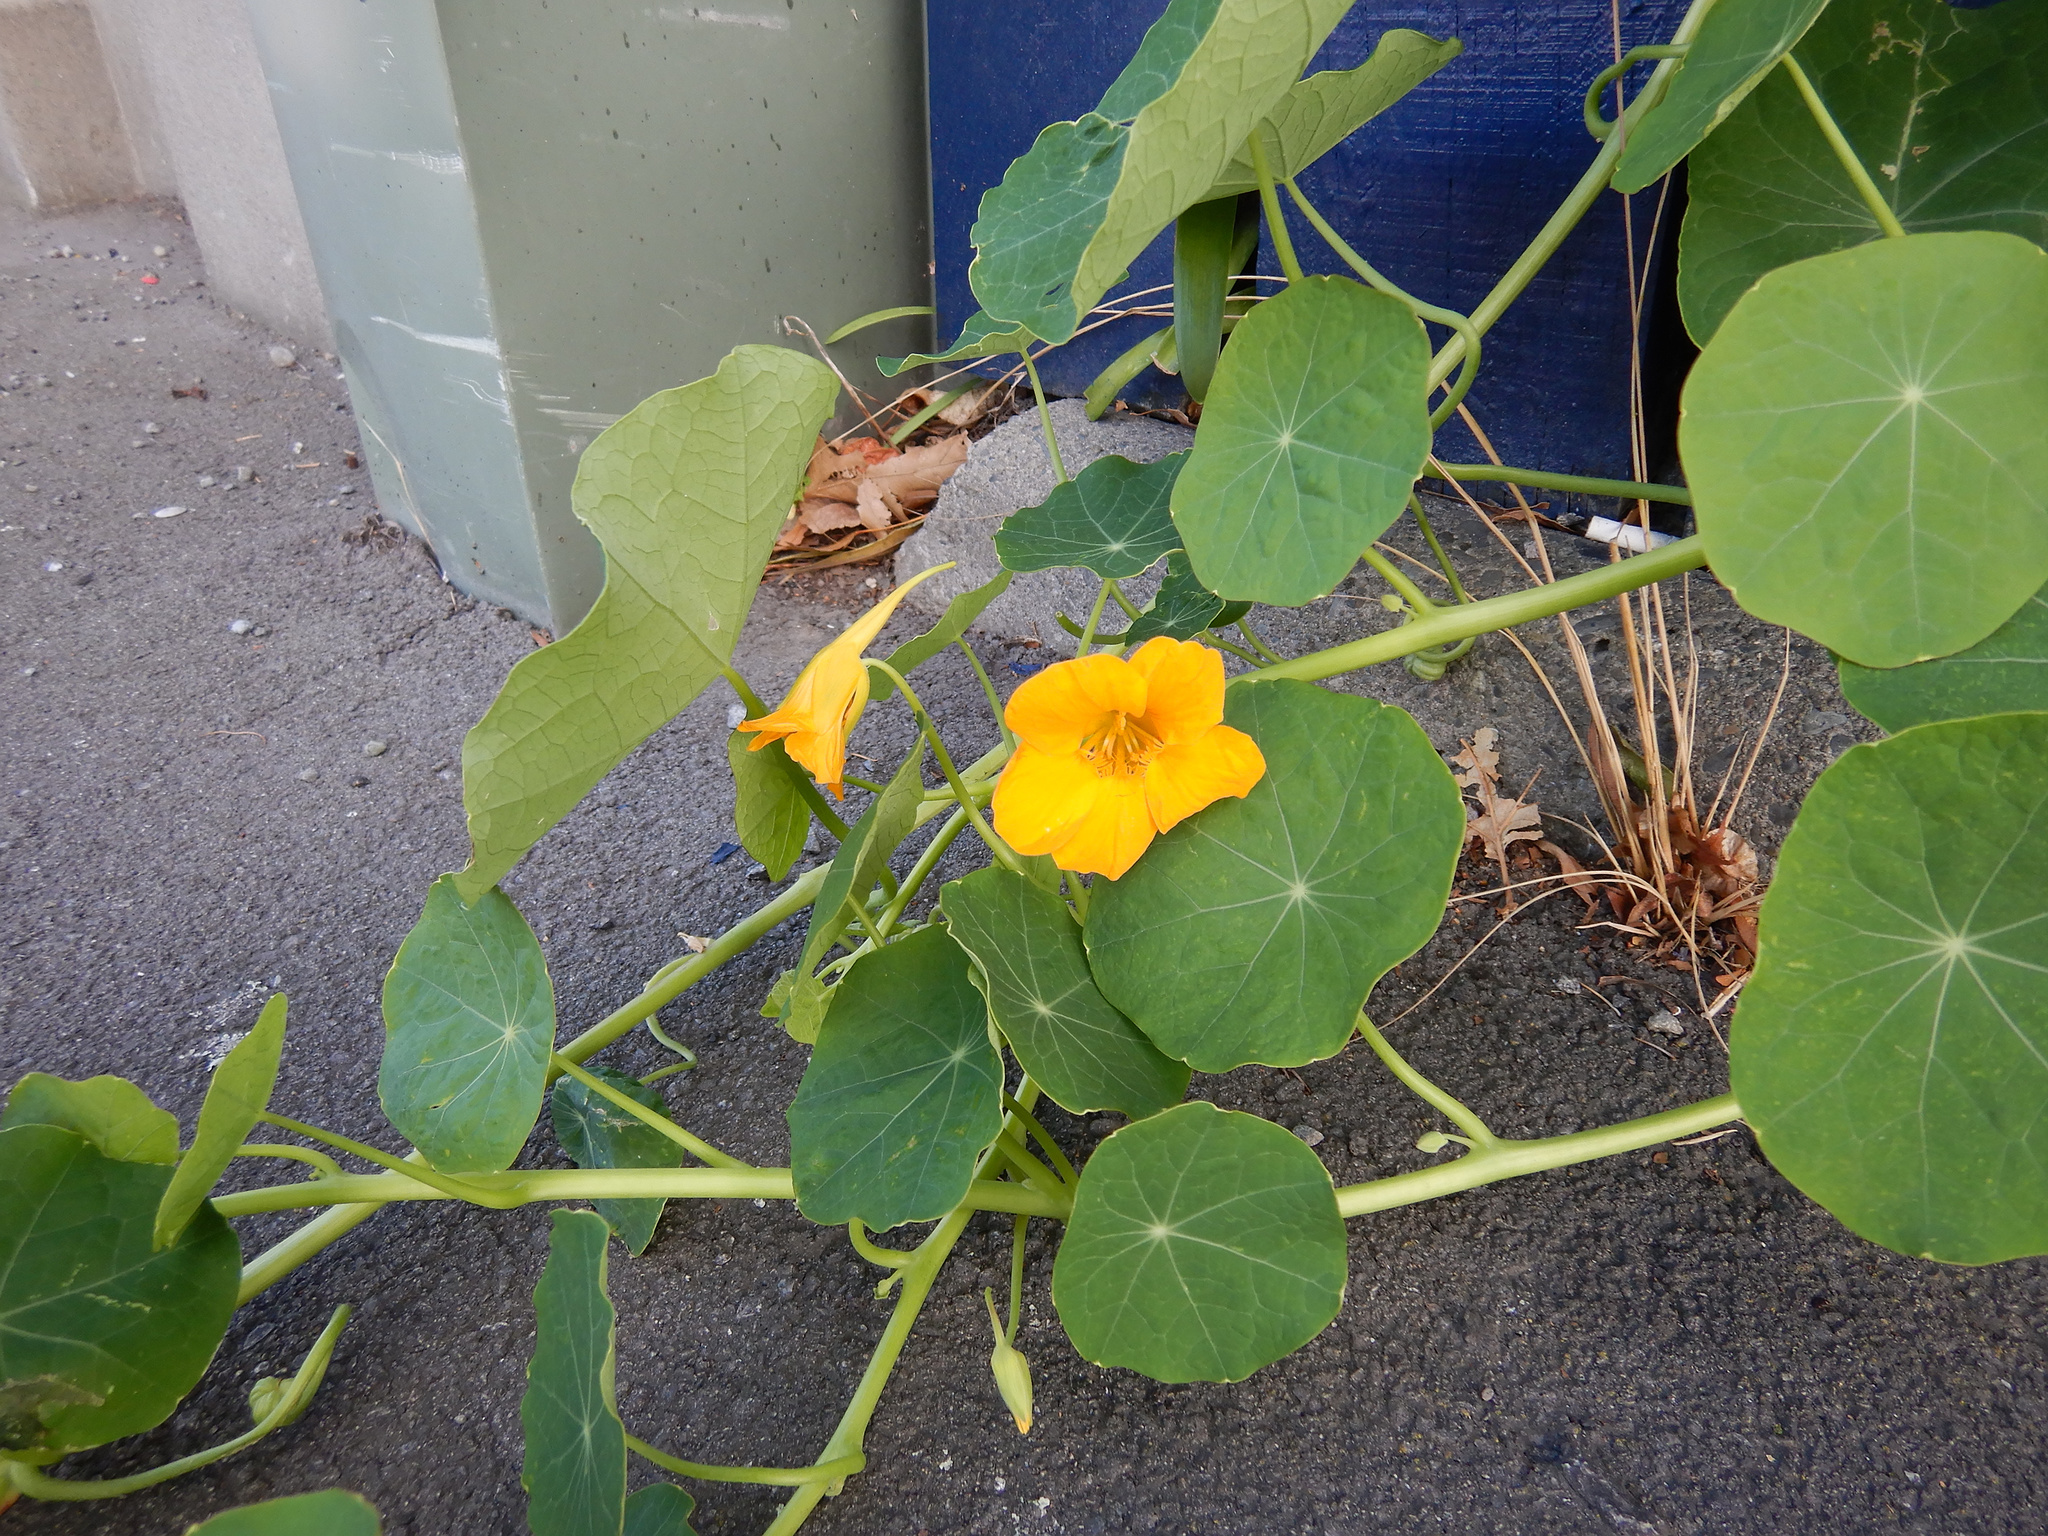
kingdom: Plantae
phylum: Tracheophyta
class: Magnoliopsida
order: Brassicales
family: Tropaeolaceae
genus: Tropaeolum
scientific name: Tropaeolum majus
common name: Nasturtium
